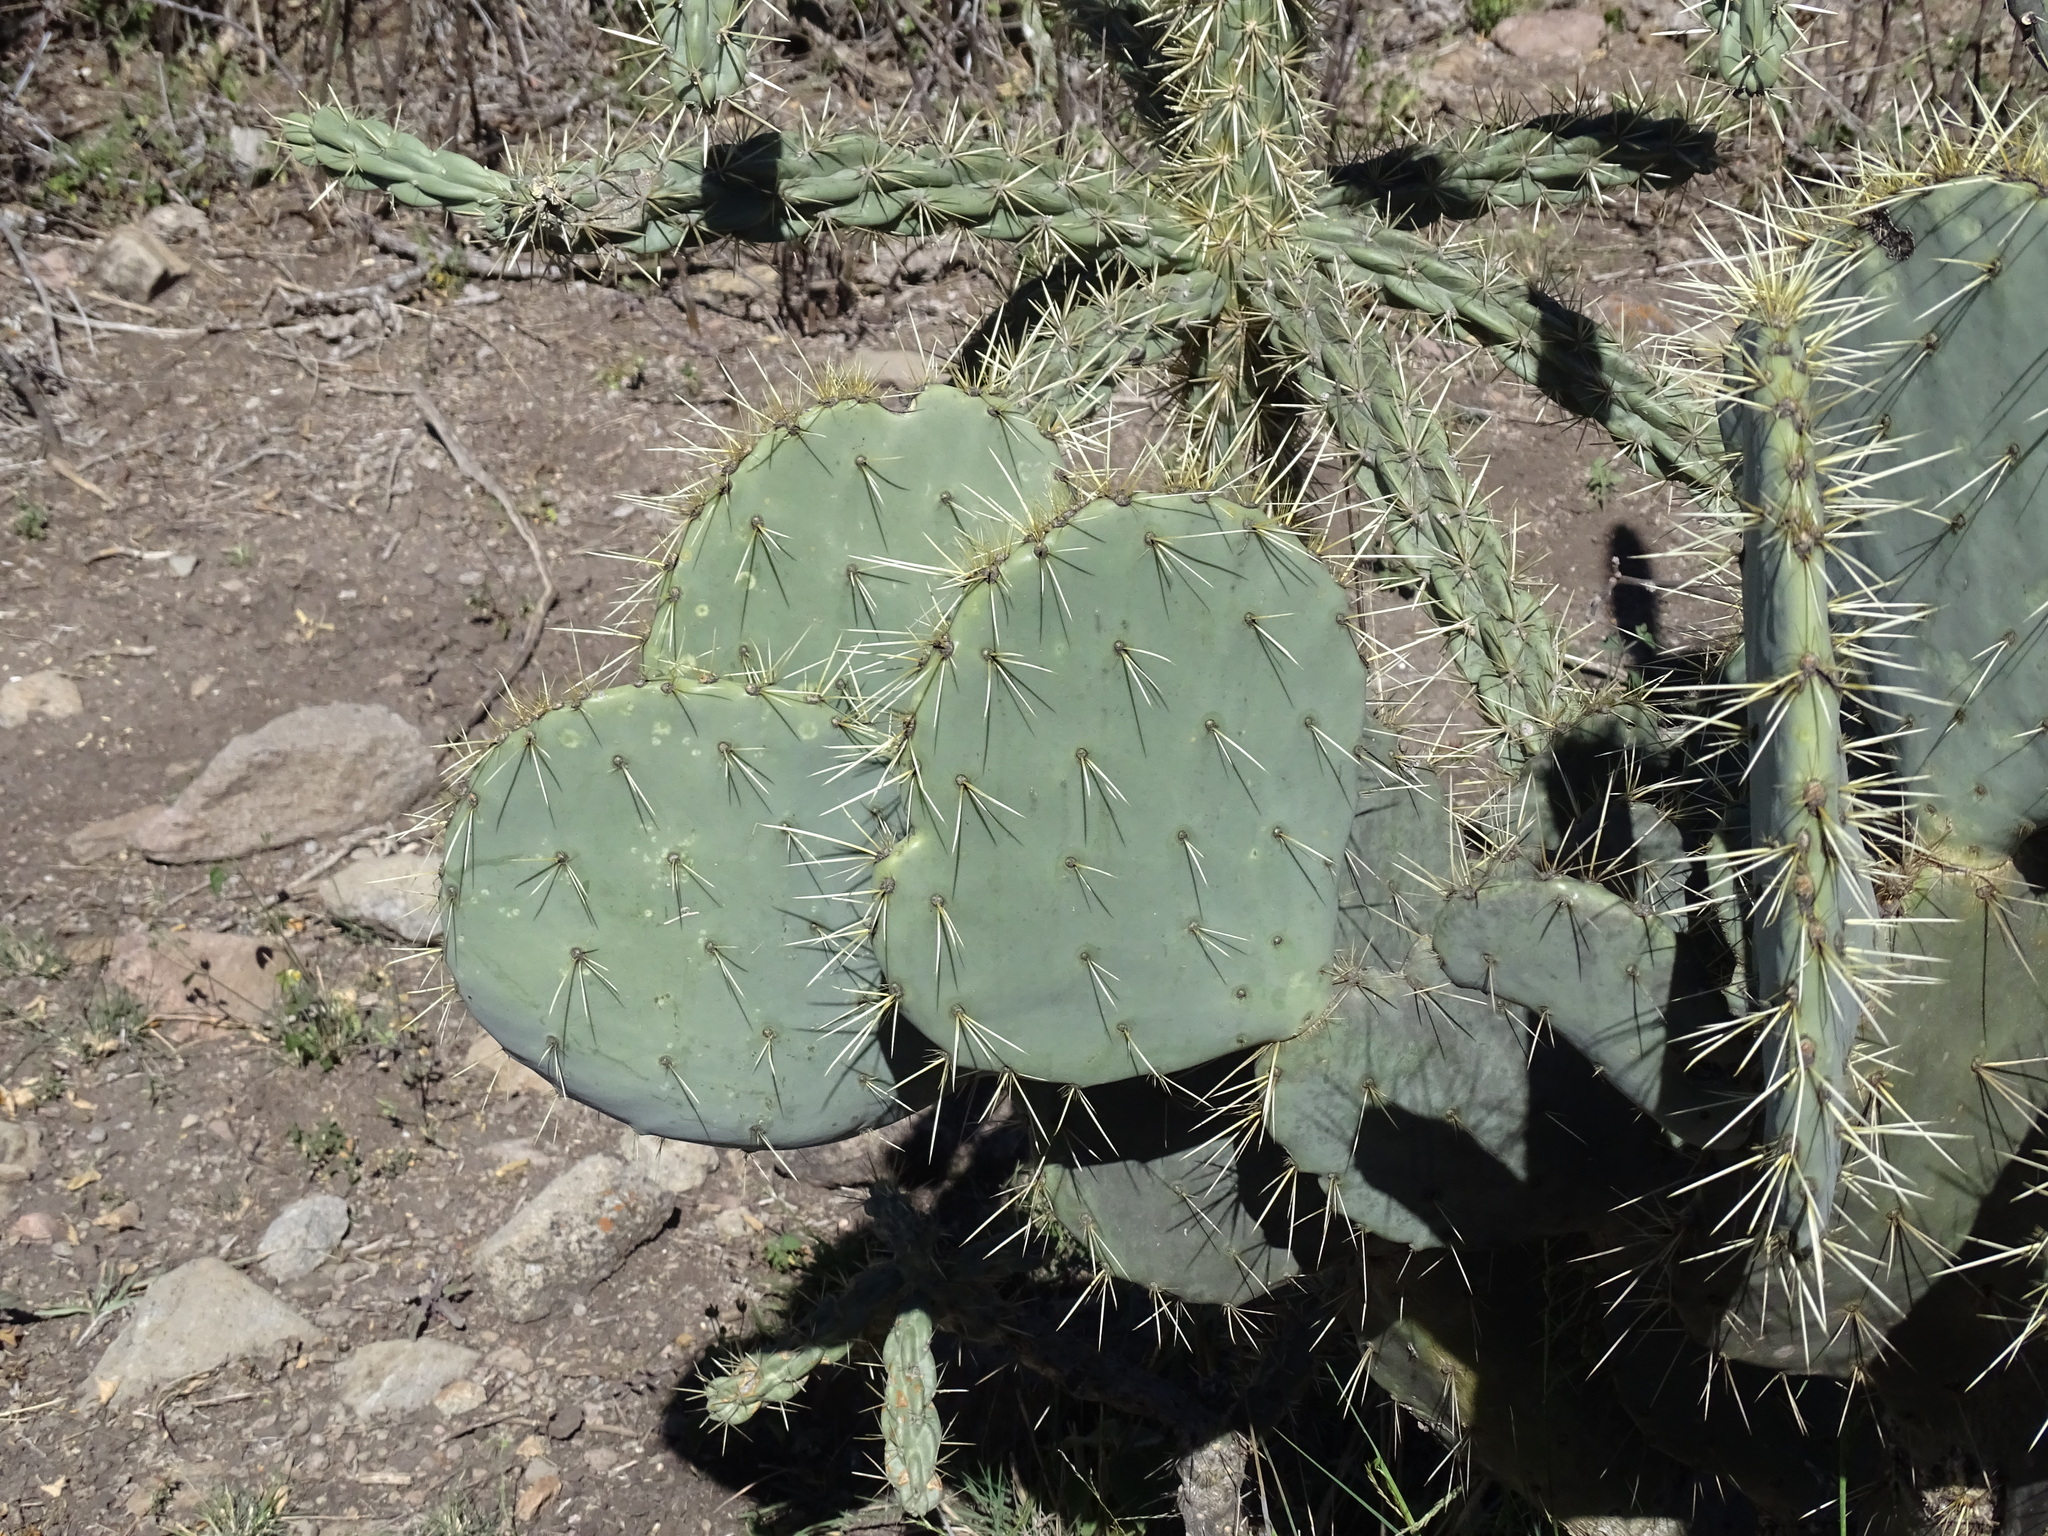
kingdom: Plantae
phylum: Tracheophyta
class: Magnoliopsida
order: Caryophyllales
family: Cactaceae
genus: Opuntia
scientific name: Opuntia robusta
